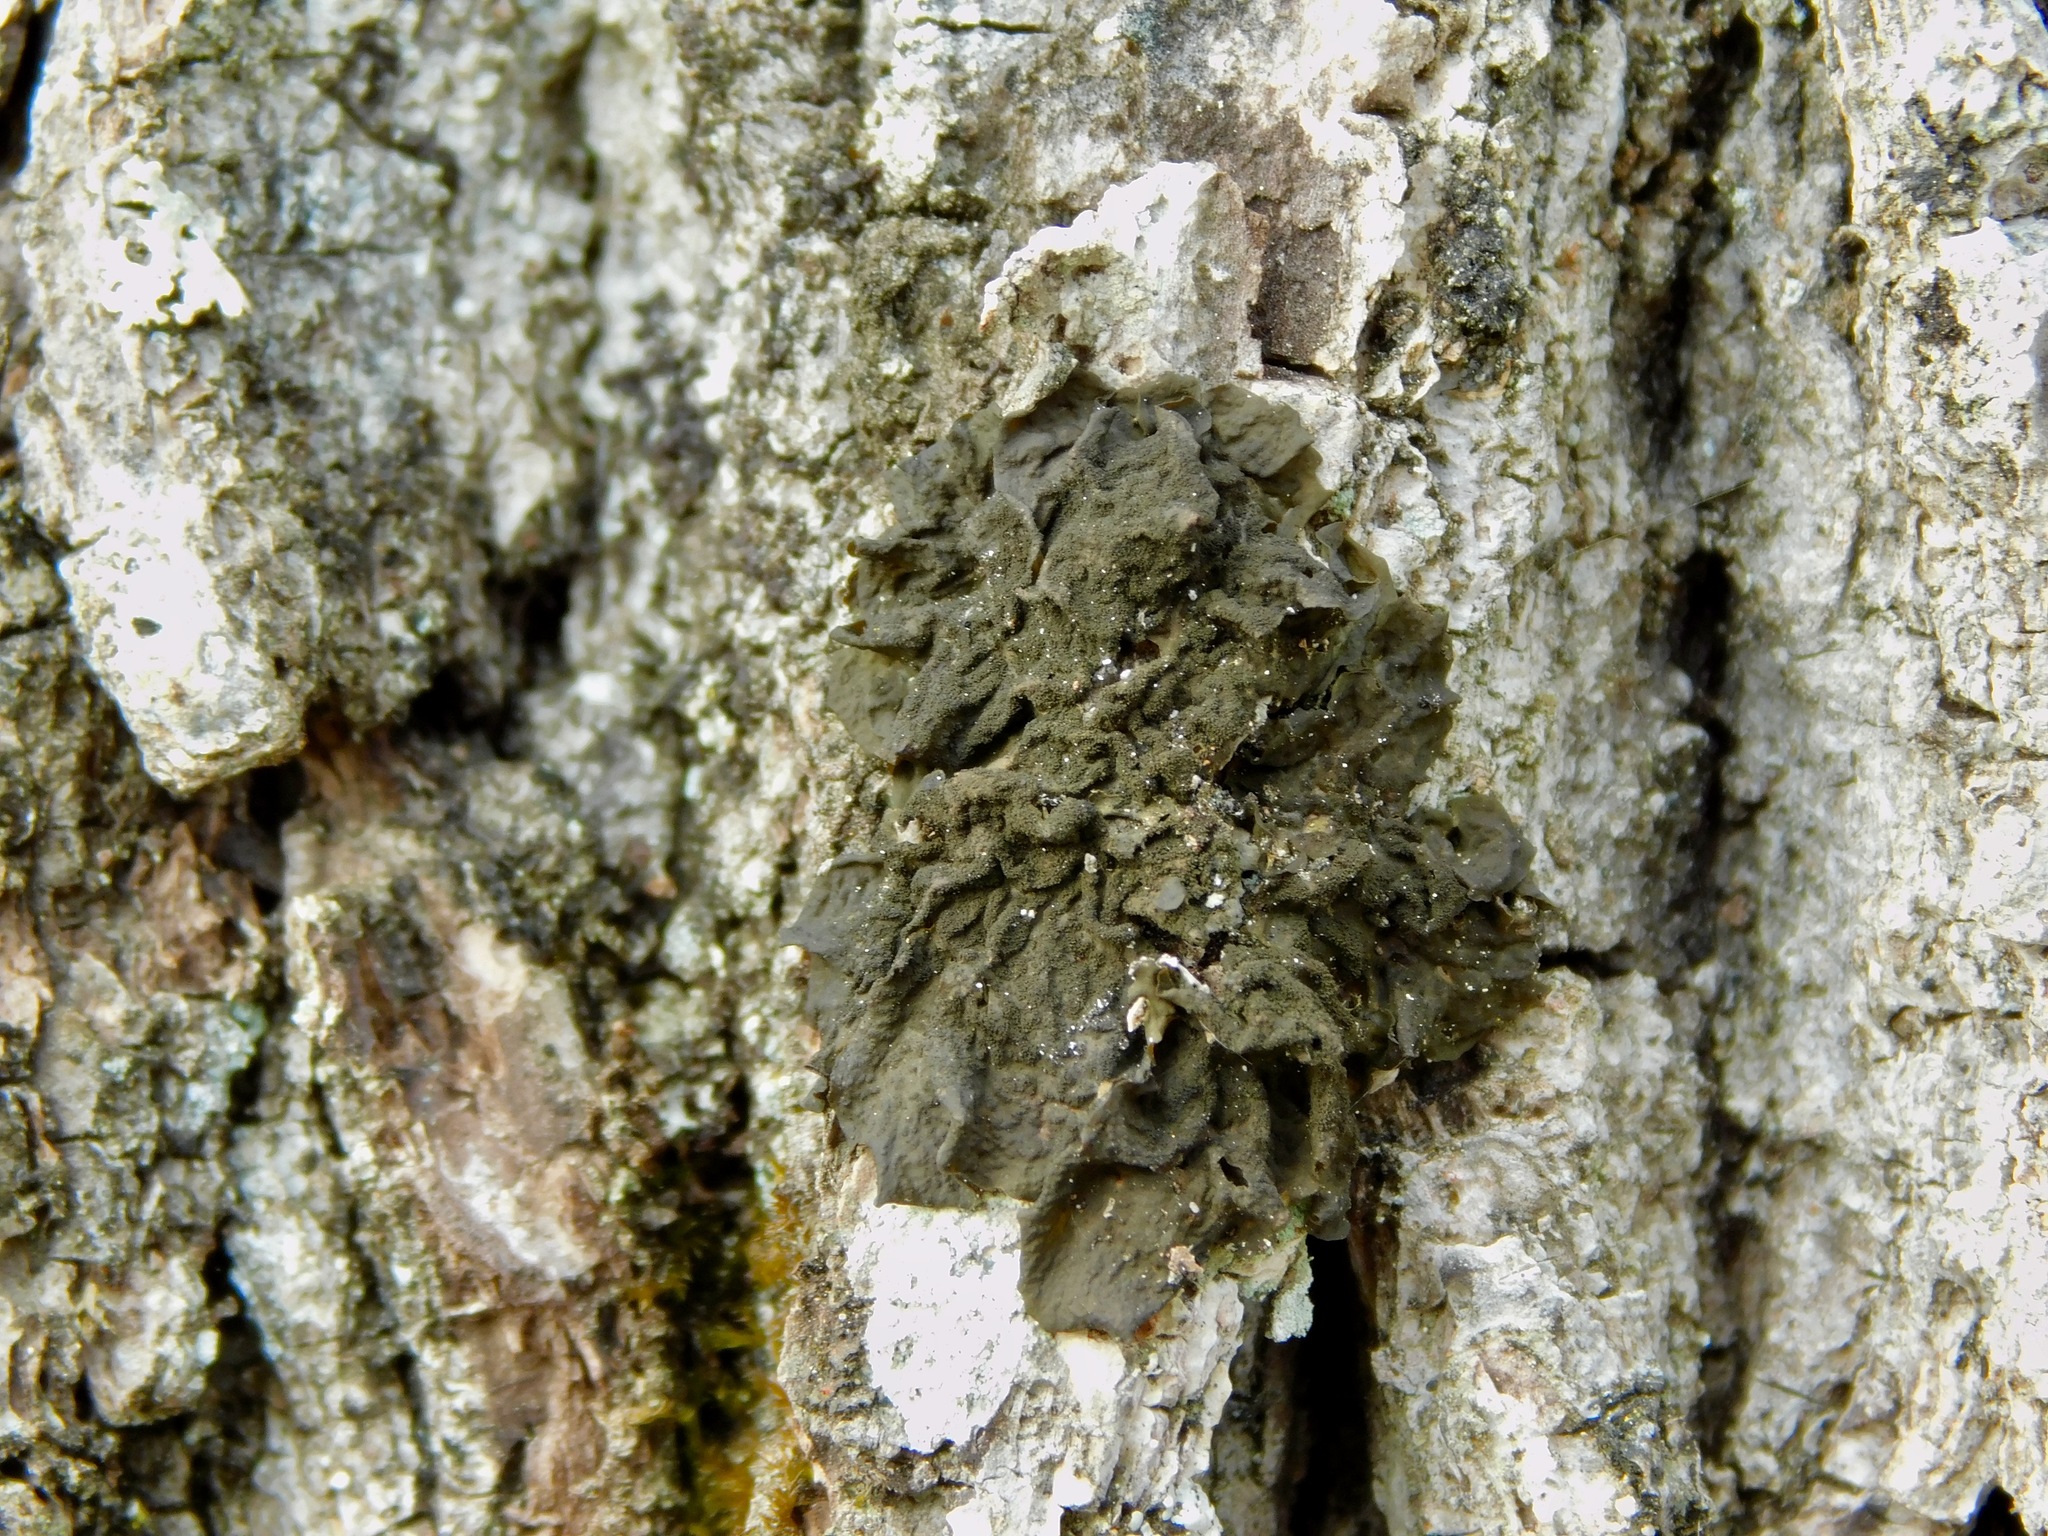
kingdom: Fungi
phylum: Ascomycota
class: Lecanoromycetes
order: Peltigerales
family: Collemataceae
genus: Collema
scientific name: Collema furfuraceum
